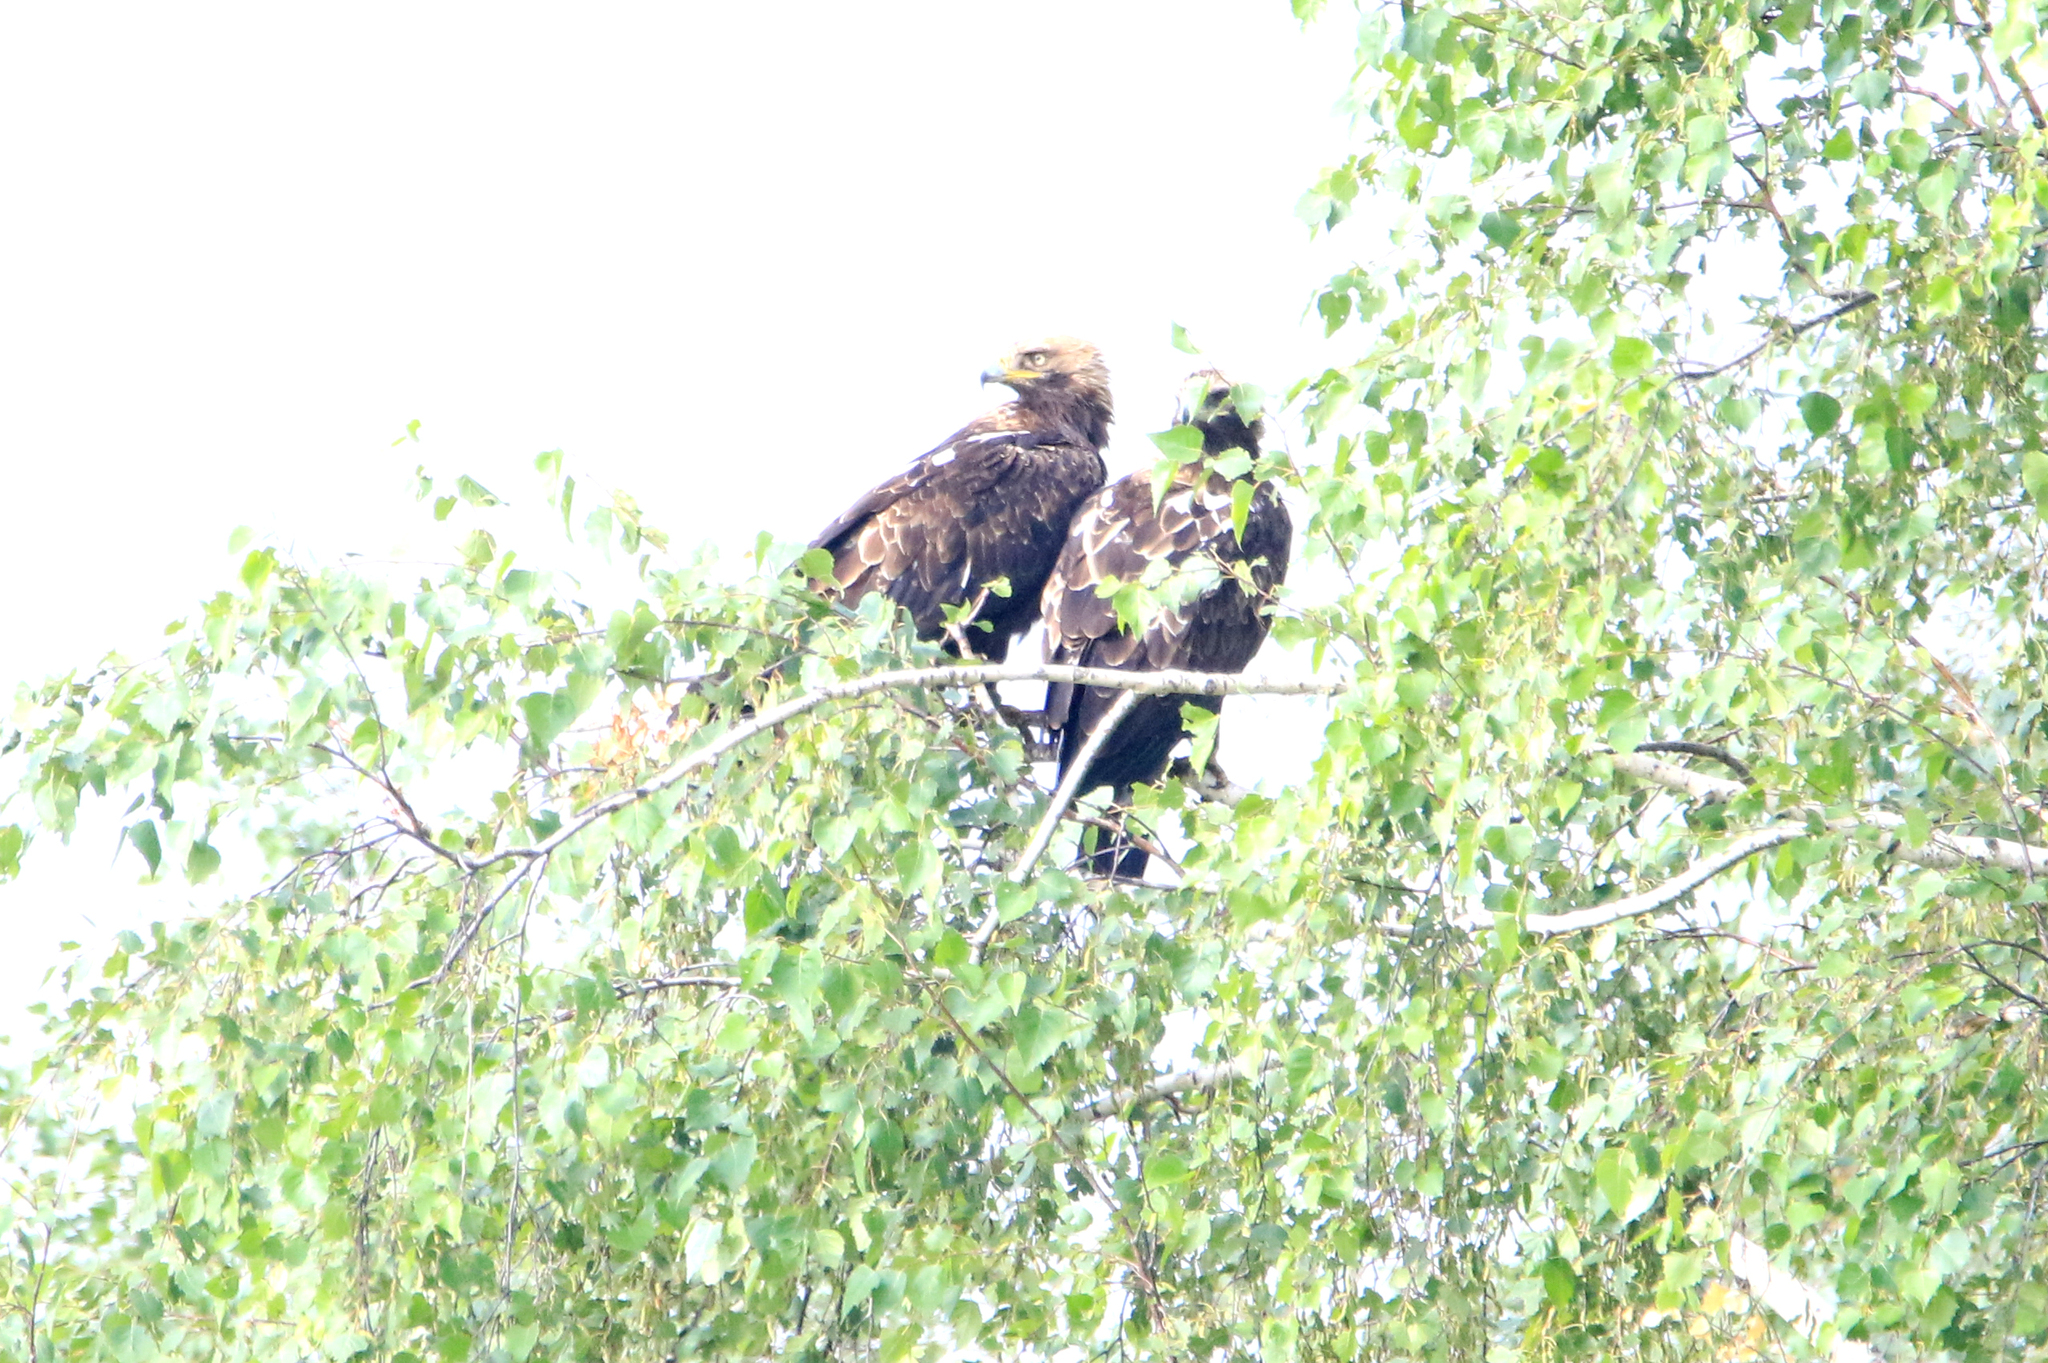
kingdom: Animalia
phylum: Chordata
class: Aves
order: Accipitriformes
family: Accipitridae
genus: Aquila
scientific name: Aquila heliaca
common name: Eastern imperial eagle
